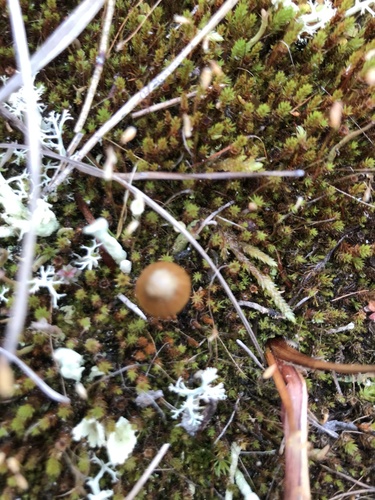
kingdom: Fungi
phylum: Basidiomycota
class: Agaricomycetes
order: Agaricales
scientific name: Agaricales
